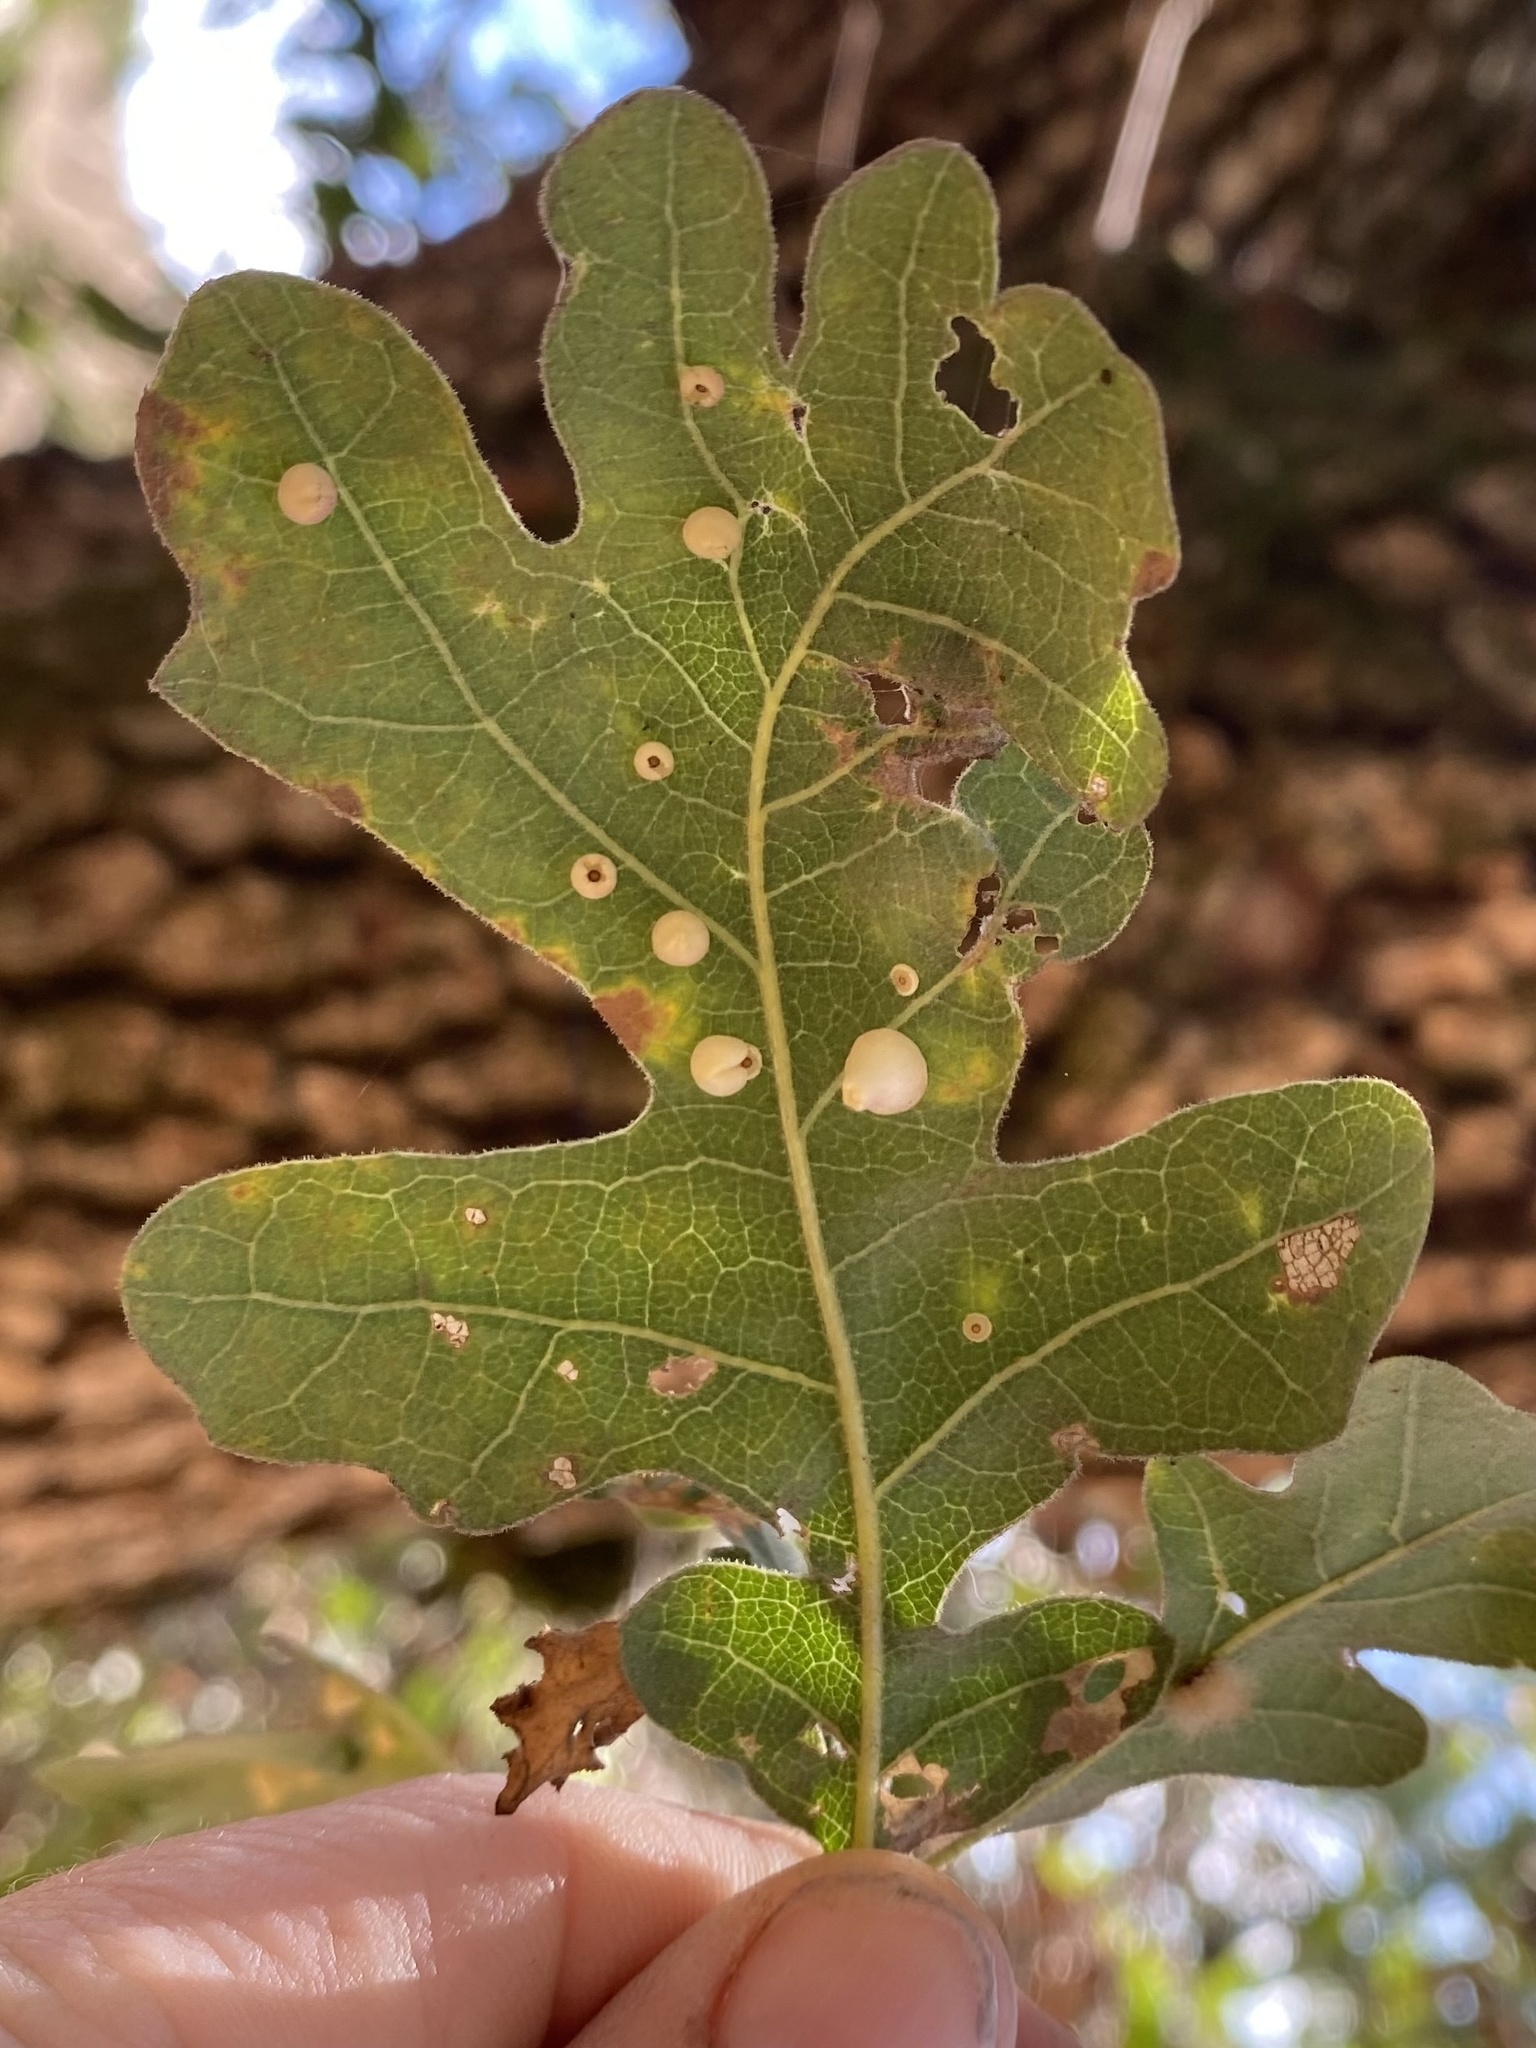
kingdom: Animalia
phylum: Arthropoda
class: Insecta
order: Hymenoptera
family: Cynipidae
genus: Andricus
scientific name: Andricus
